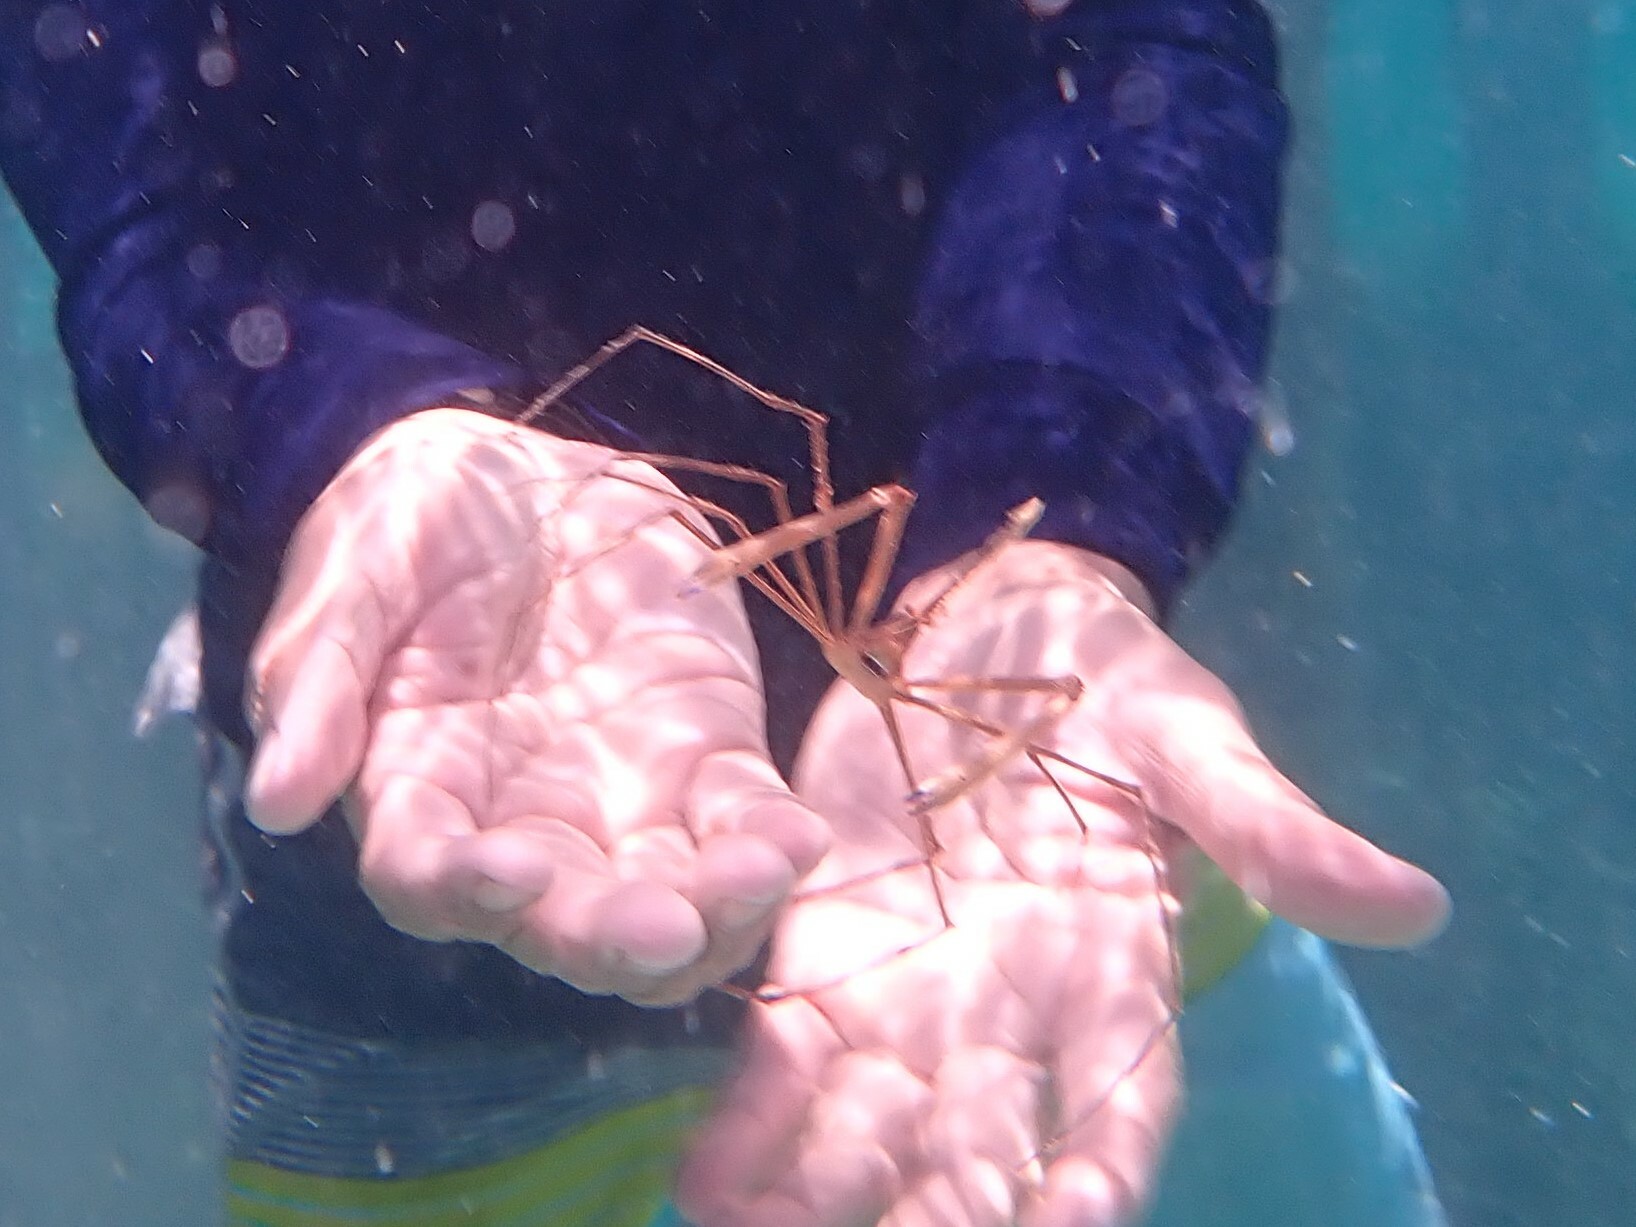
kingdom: Animalia
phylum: Arthropoda
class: Malacostraca
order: Decapoda
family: Inachoididae
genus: Stenorhynchus
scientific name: Stenorhynchus seticornis
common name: Arrow crab
